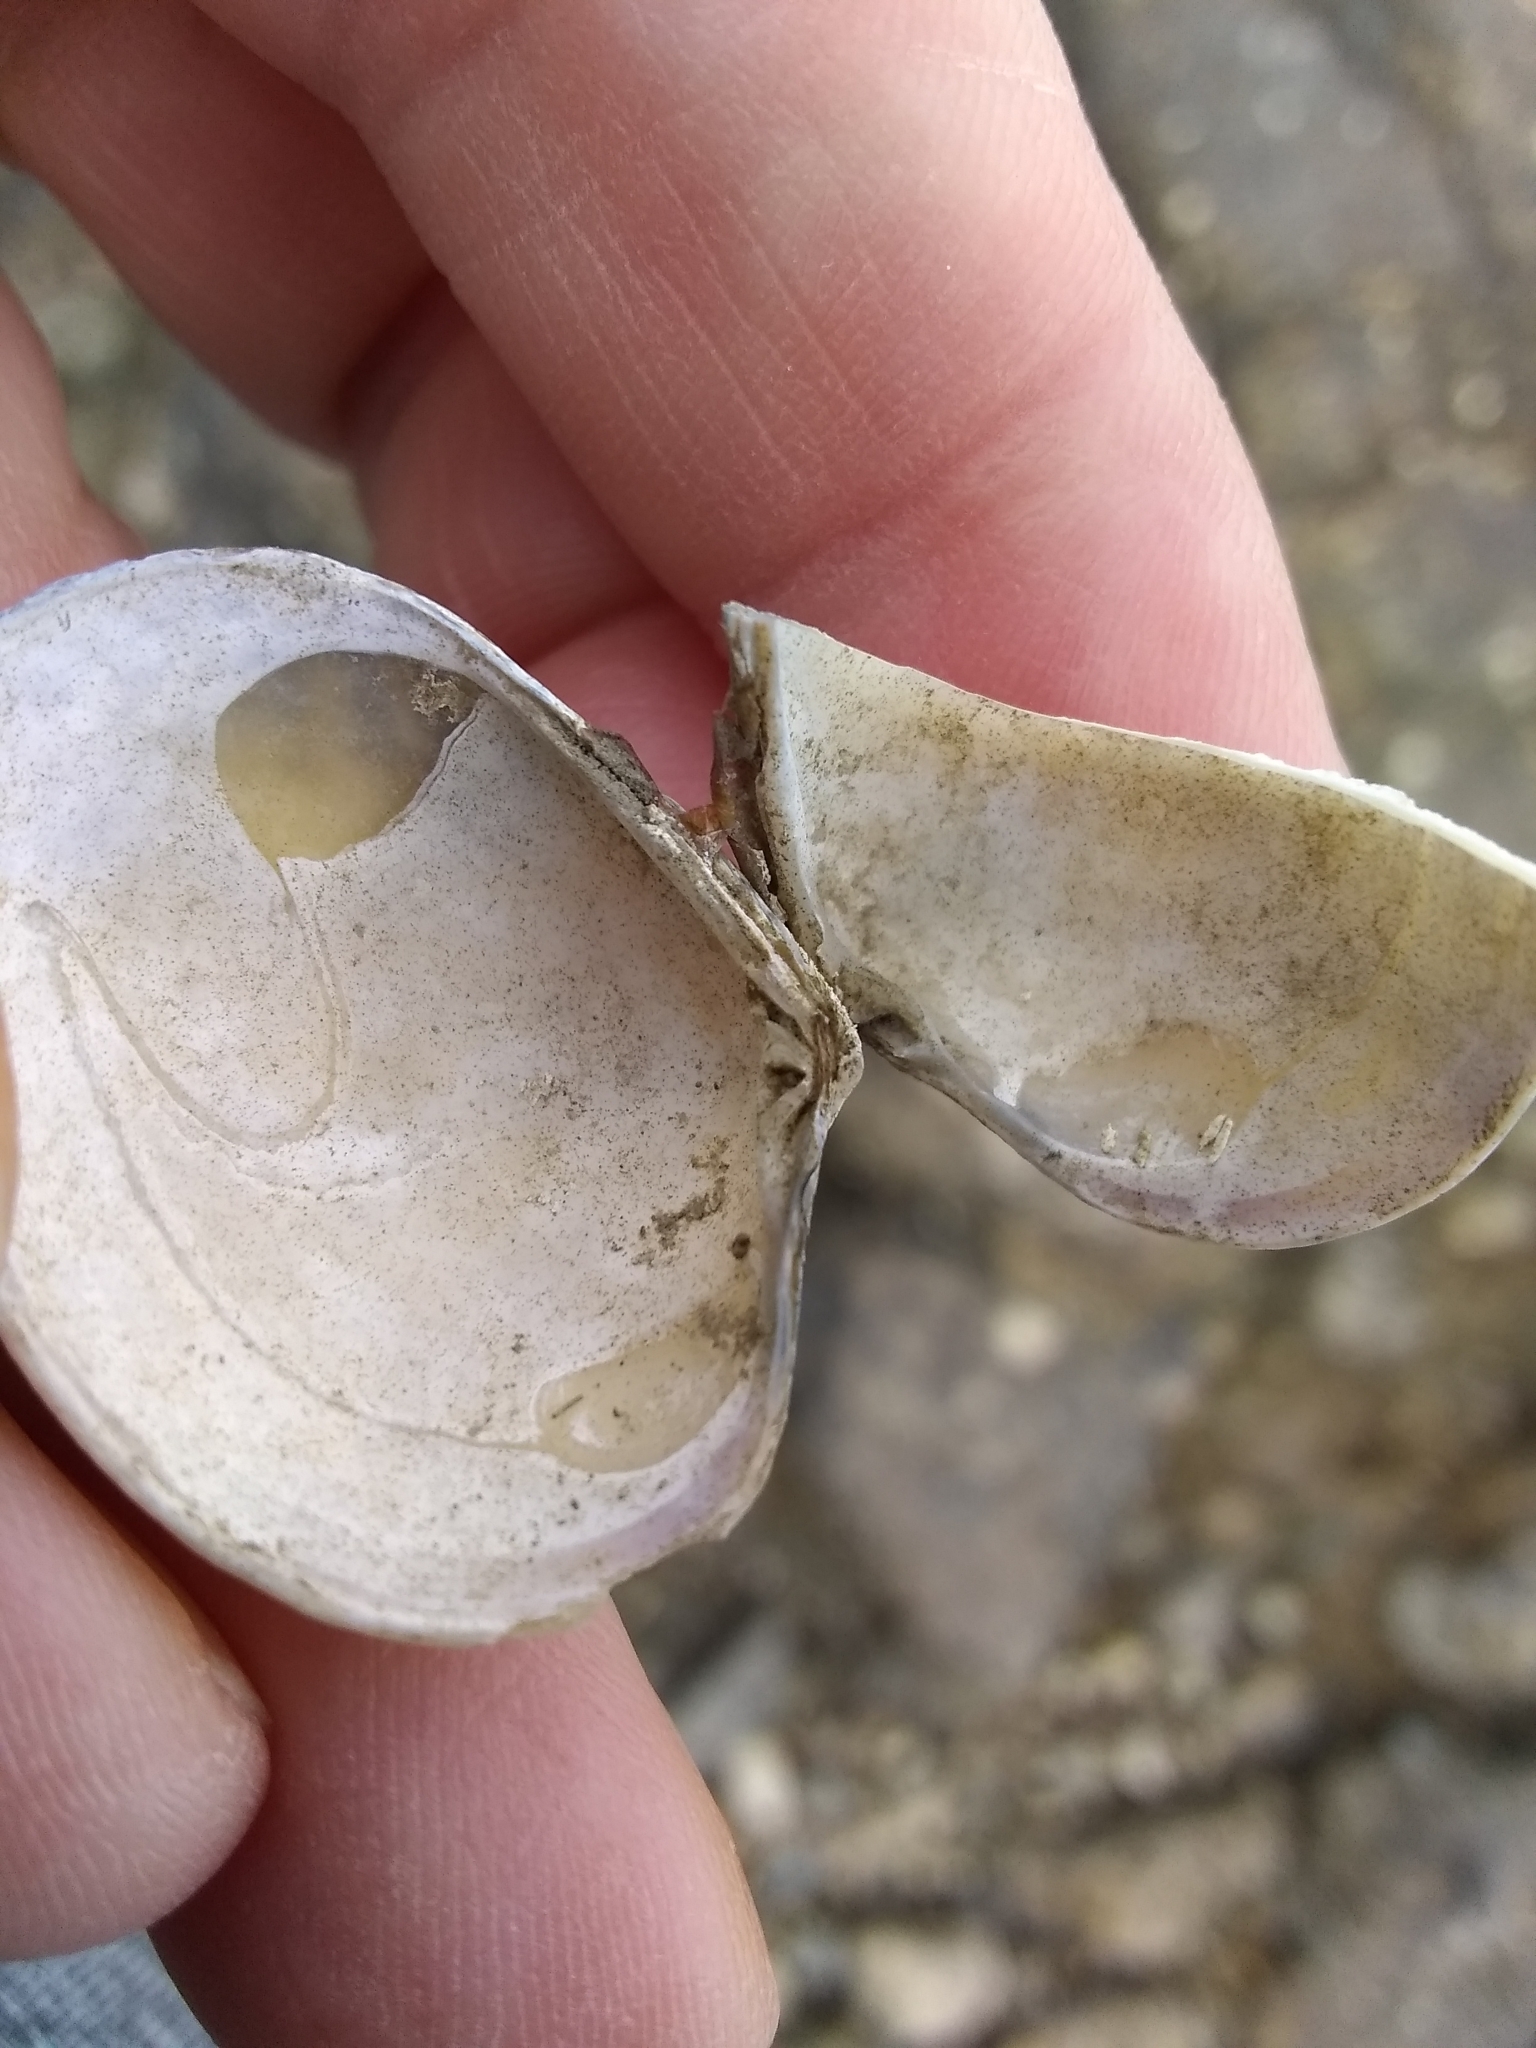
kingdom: Animalia
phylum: Mollusca
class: Bivalvia
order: Venerida
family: Veneridae
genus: Ruditapes
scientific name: Ruditapes philippinarum
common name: Manila clam
